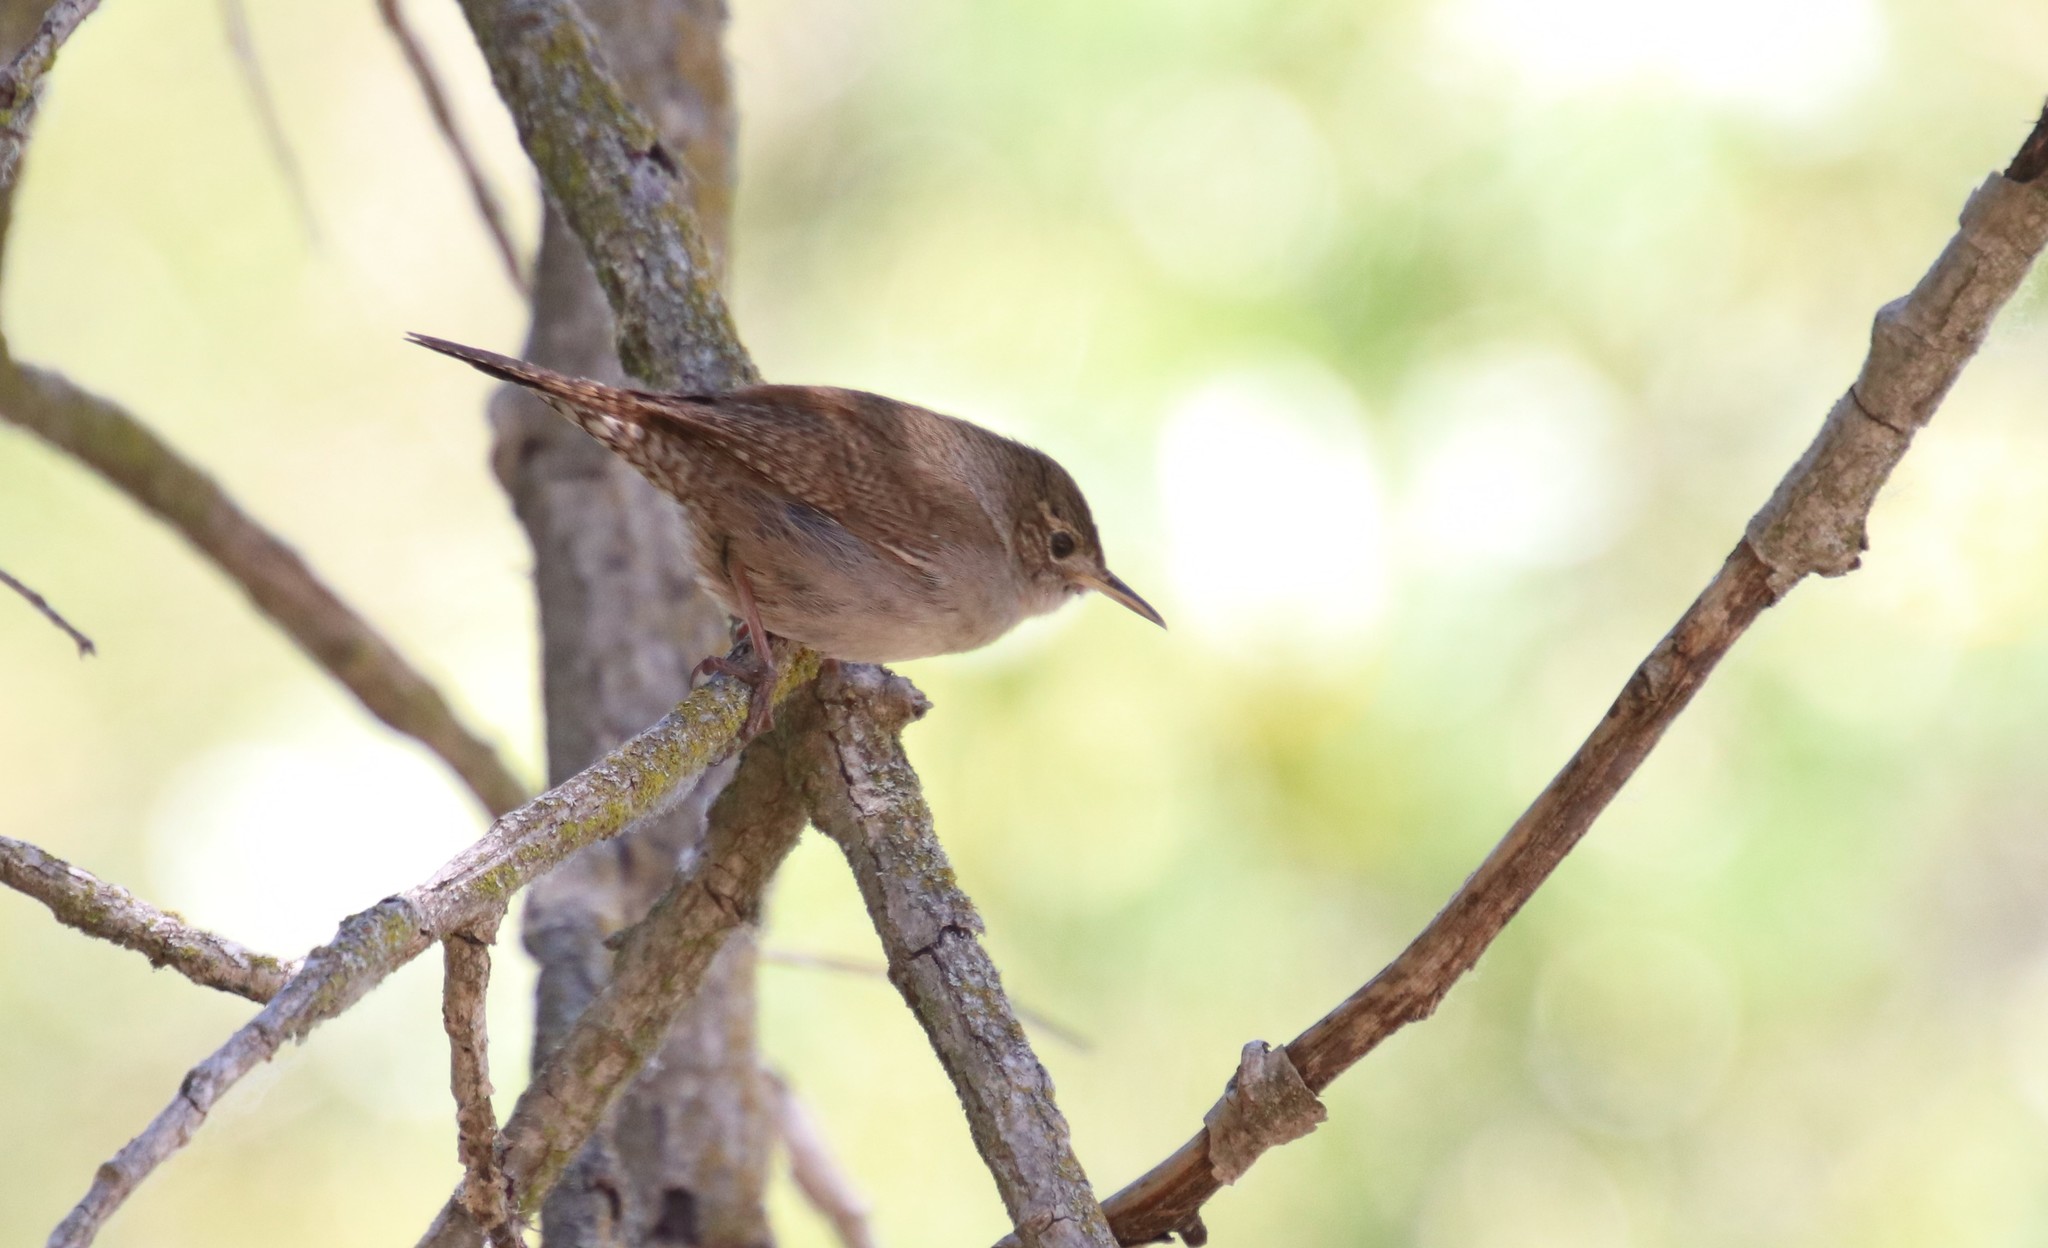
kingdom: Animalia
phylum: Chordata
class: Aves
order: Passeriformes
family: Troglodytidae
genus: Troglodytes
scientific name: Troglodytes aedon
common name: House wren
